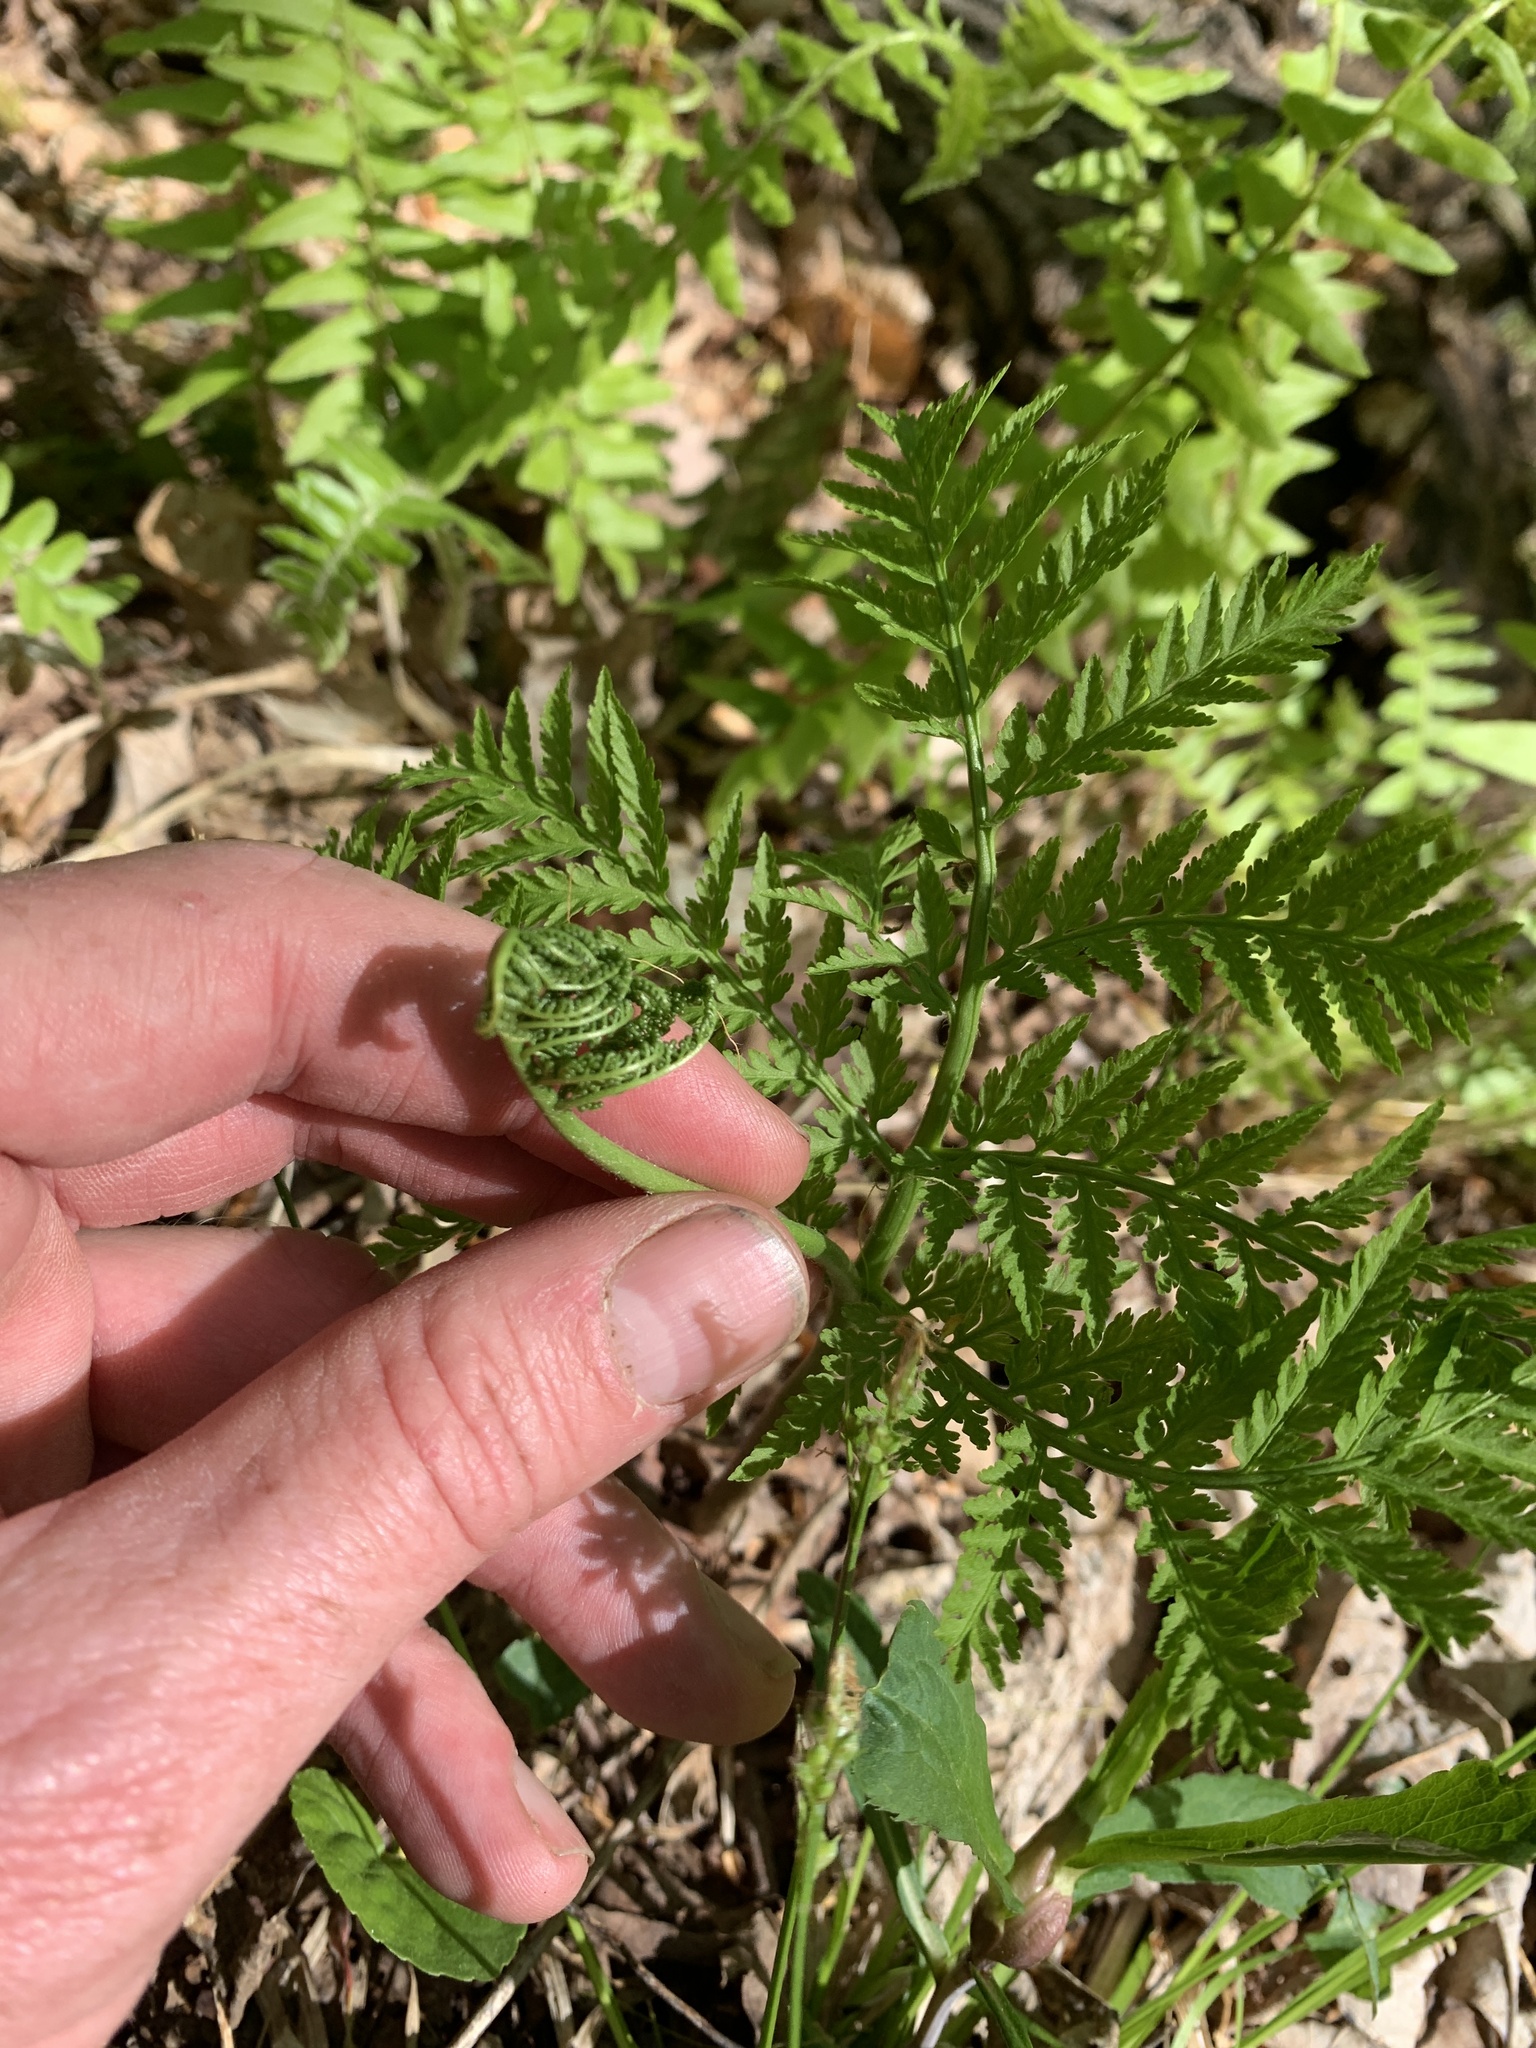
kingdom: Plantae
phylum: Tracheophyta
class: Polypodiopsida
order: Ophioglossales
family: Ophioglossaceae
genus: Botrypus
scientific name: Botrypus virginianus
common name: Common grapefern
